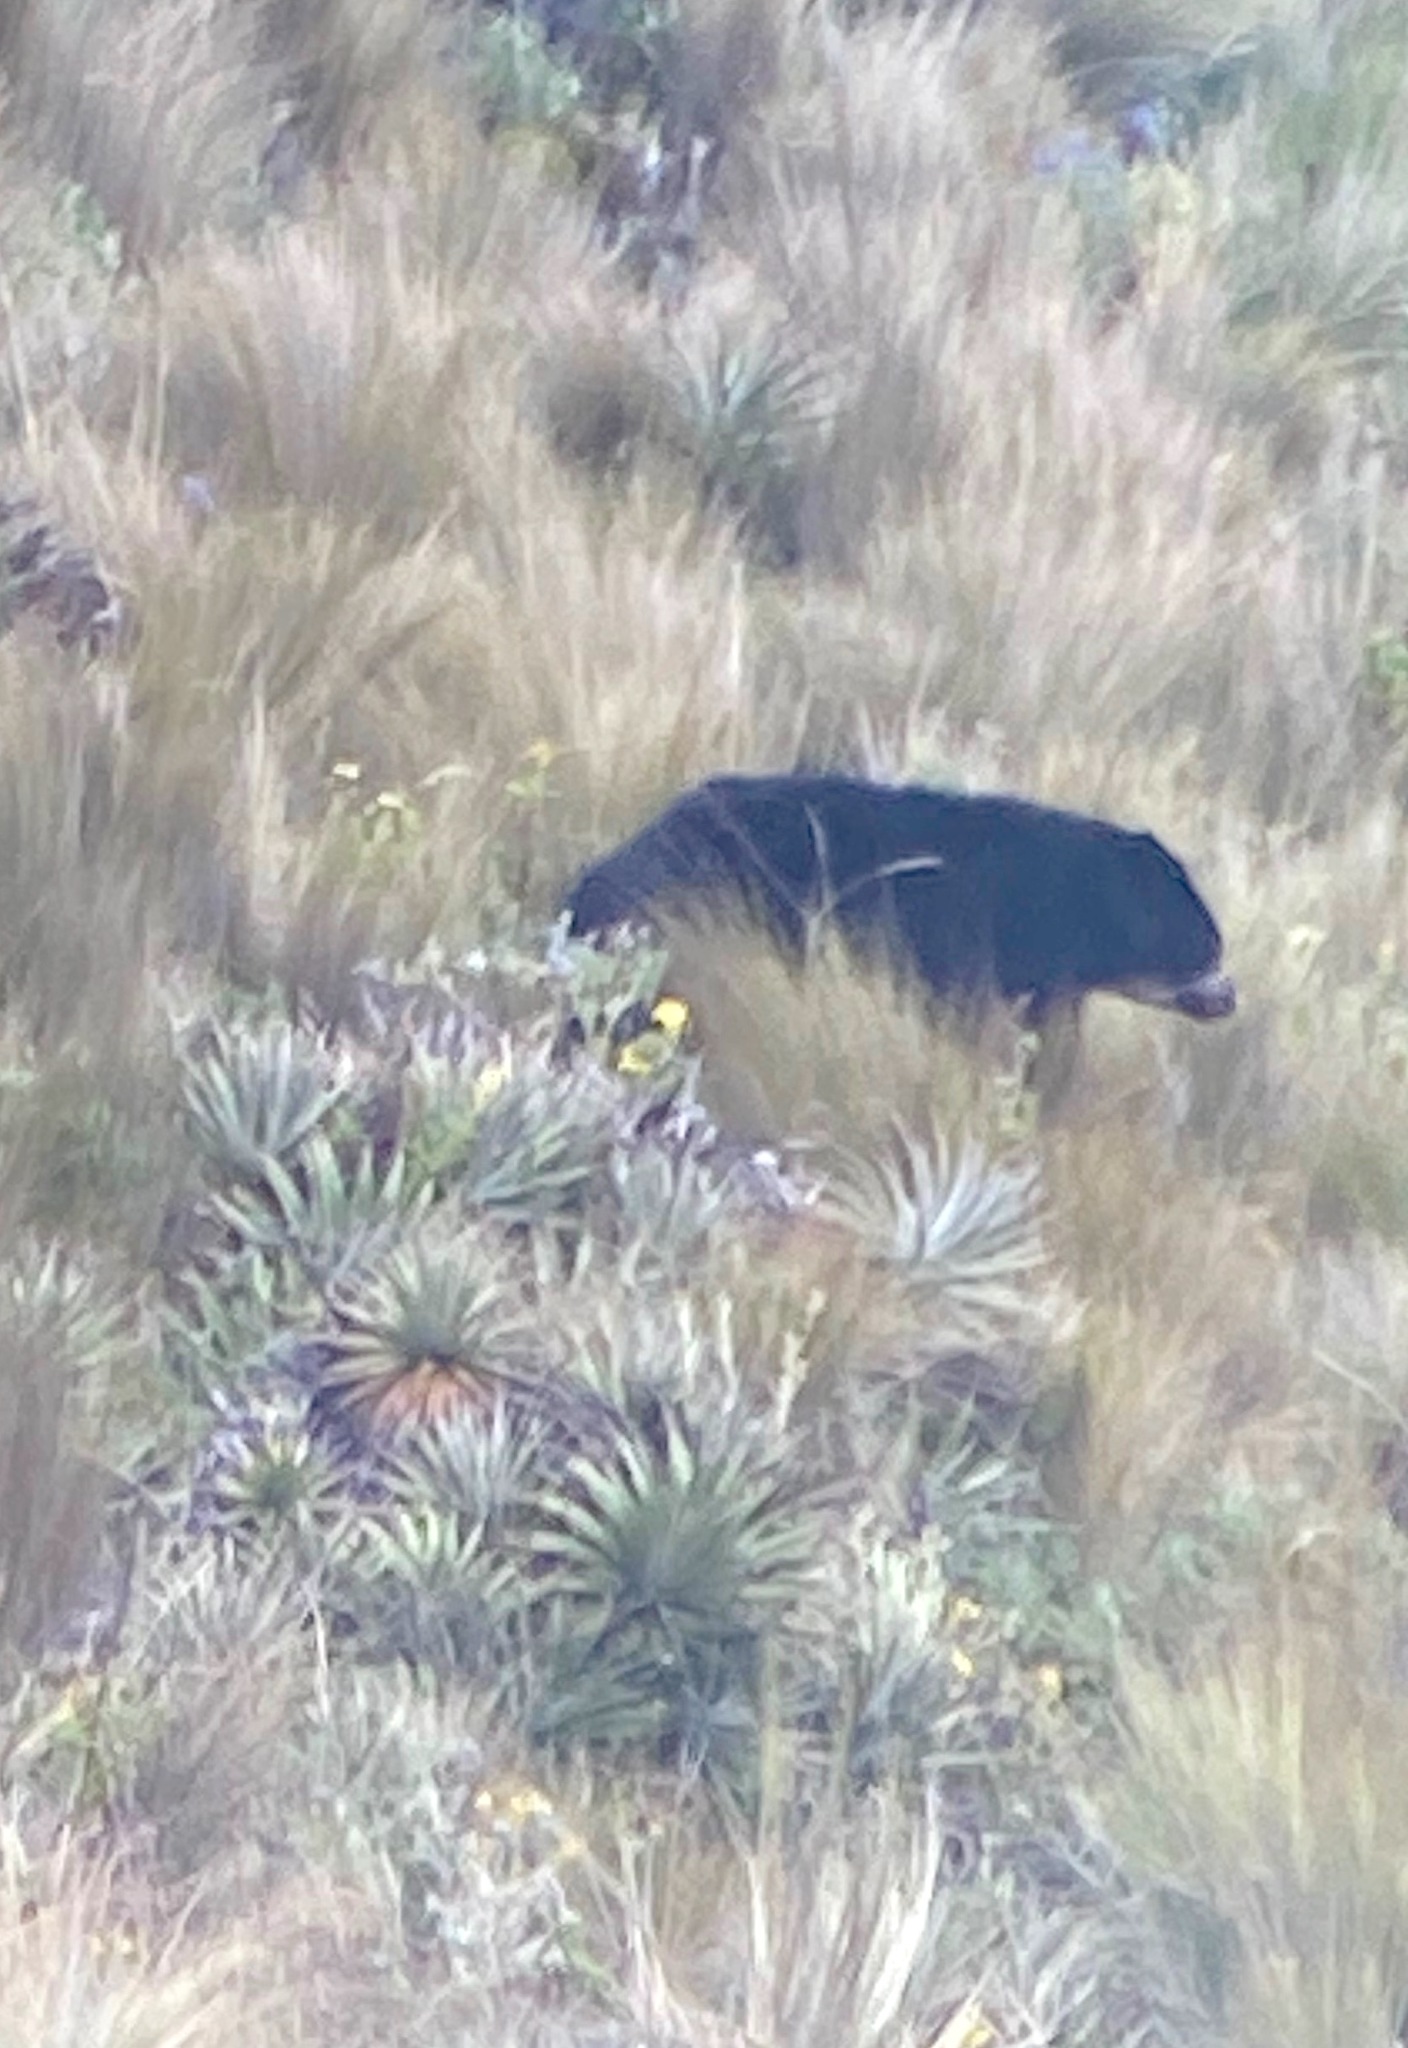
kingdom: Animalia
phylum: Chordata
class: Mammalia
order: Carnivora
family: Ursidae
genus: Tremarctos
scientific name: Tremarctos ornatus
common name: Spectacled bear
